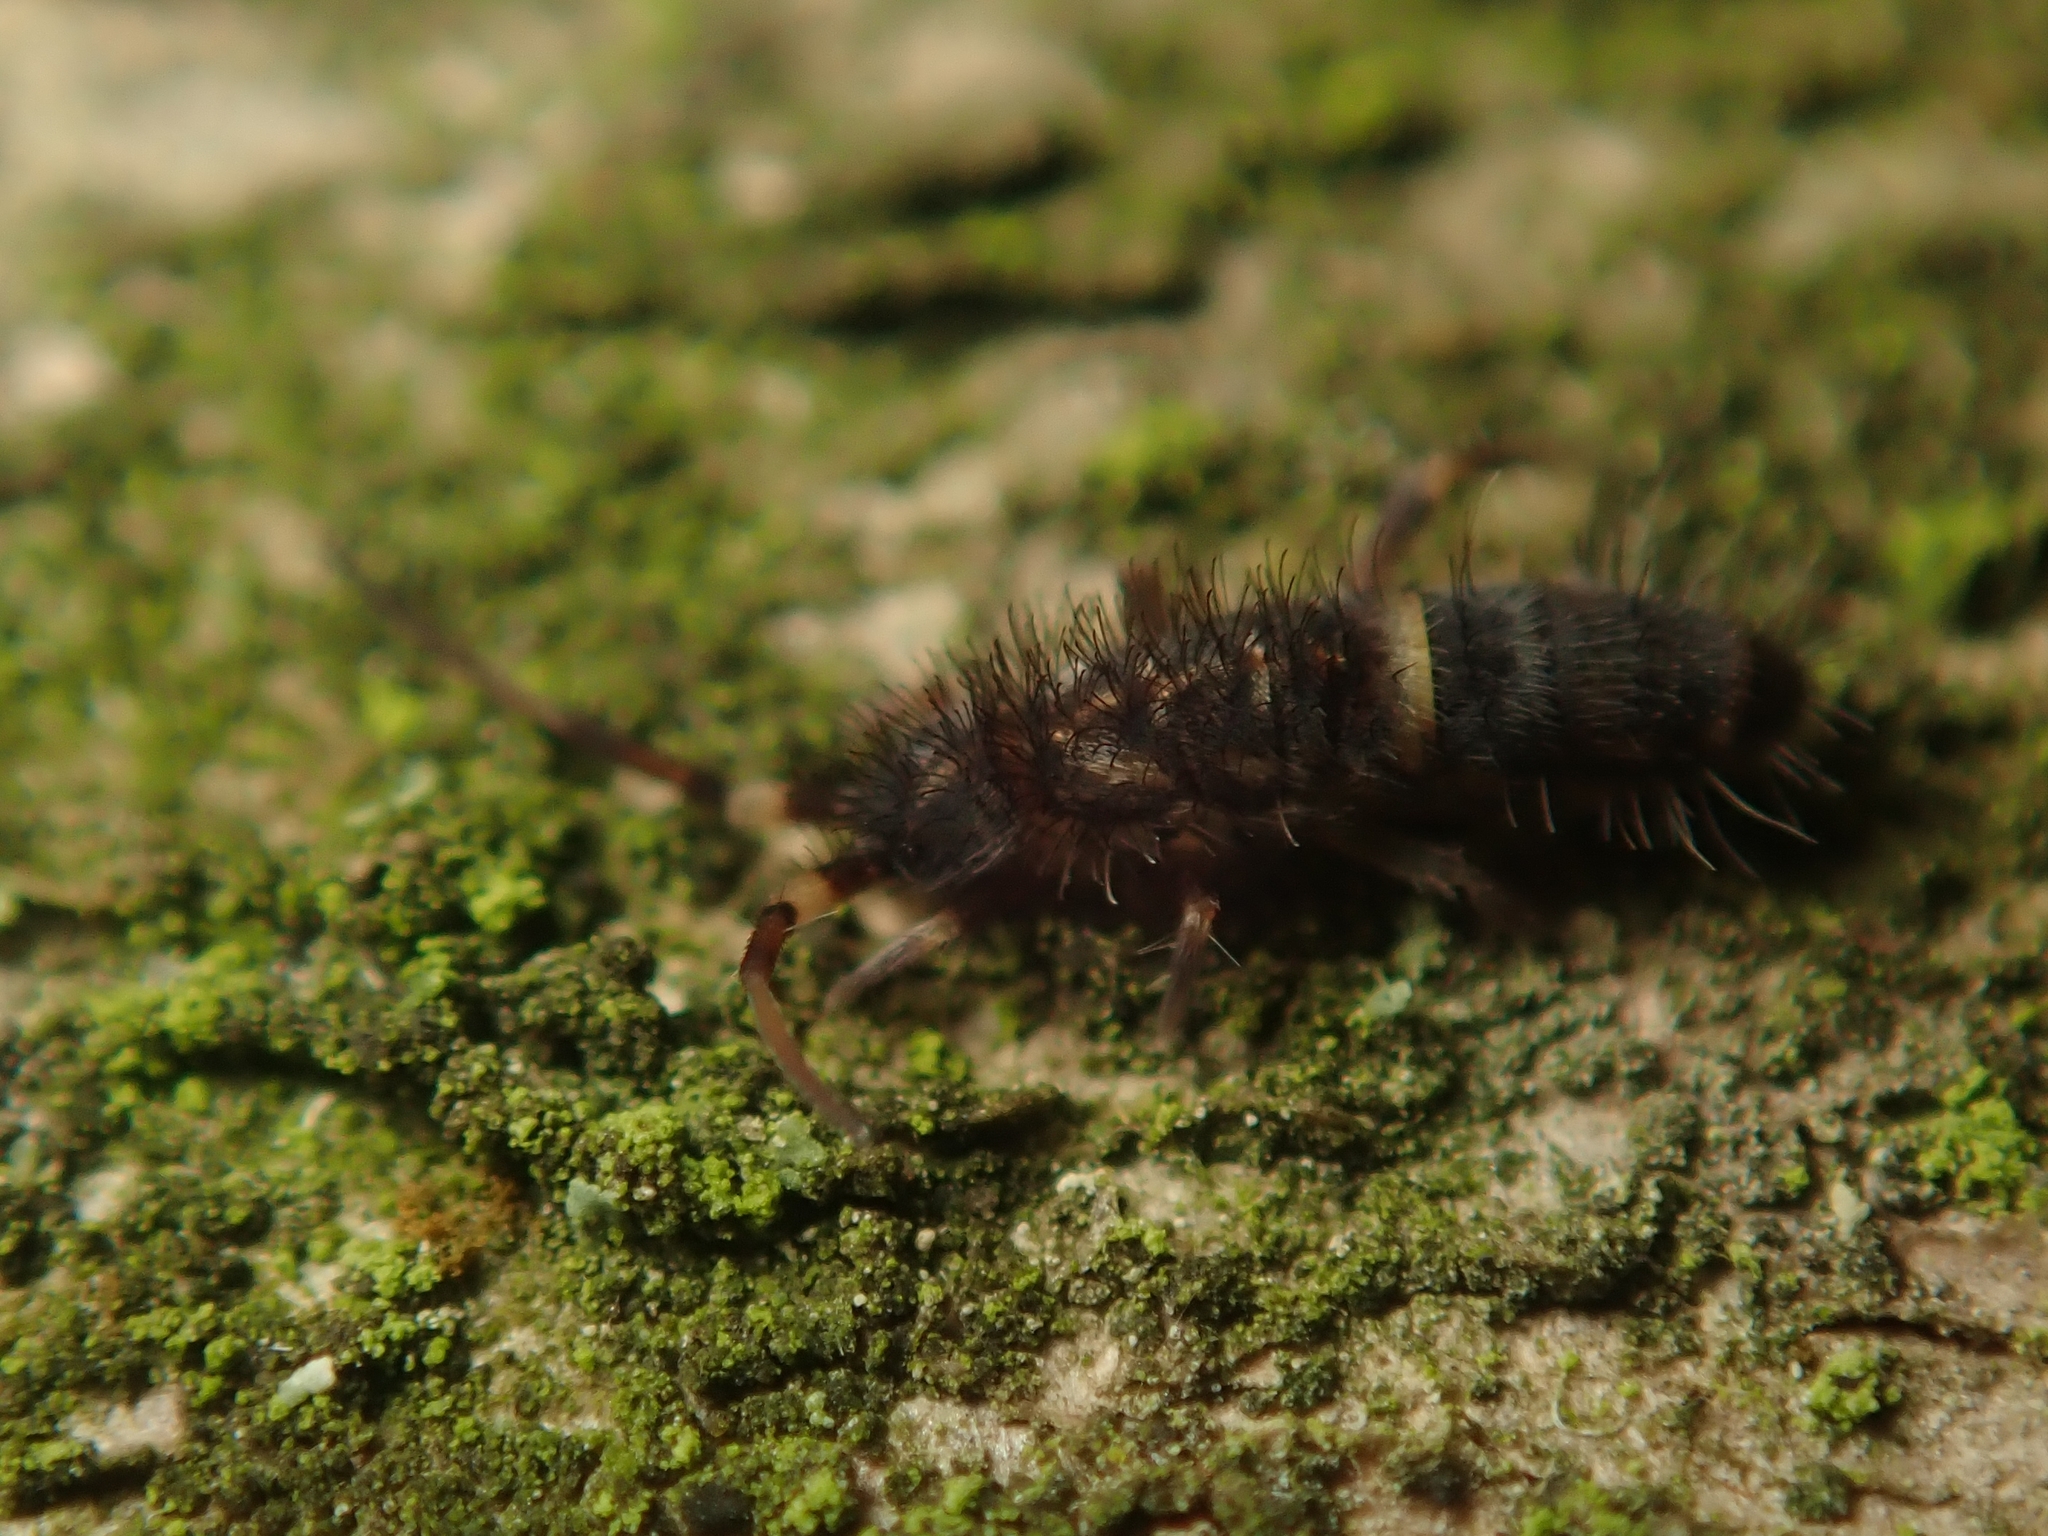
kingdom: Animalia
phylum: Arthropoda
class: Collembola
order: Entomobryomorpha
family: Orchesellidae
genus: Orchesella
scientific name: Orchesella cincta
